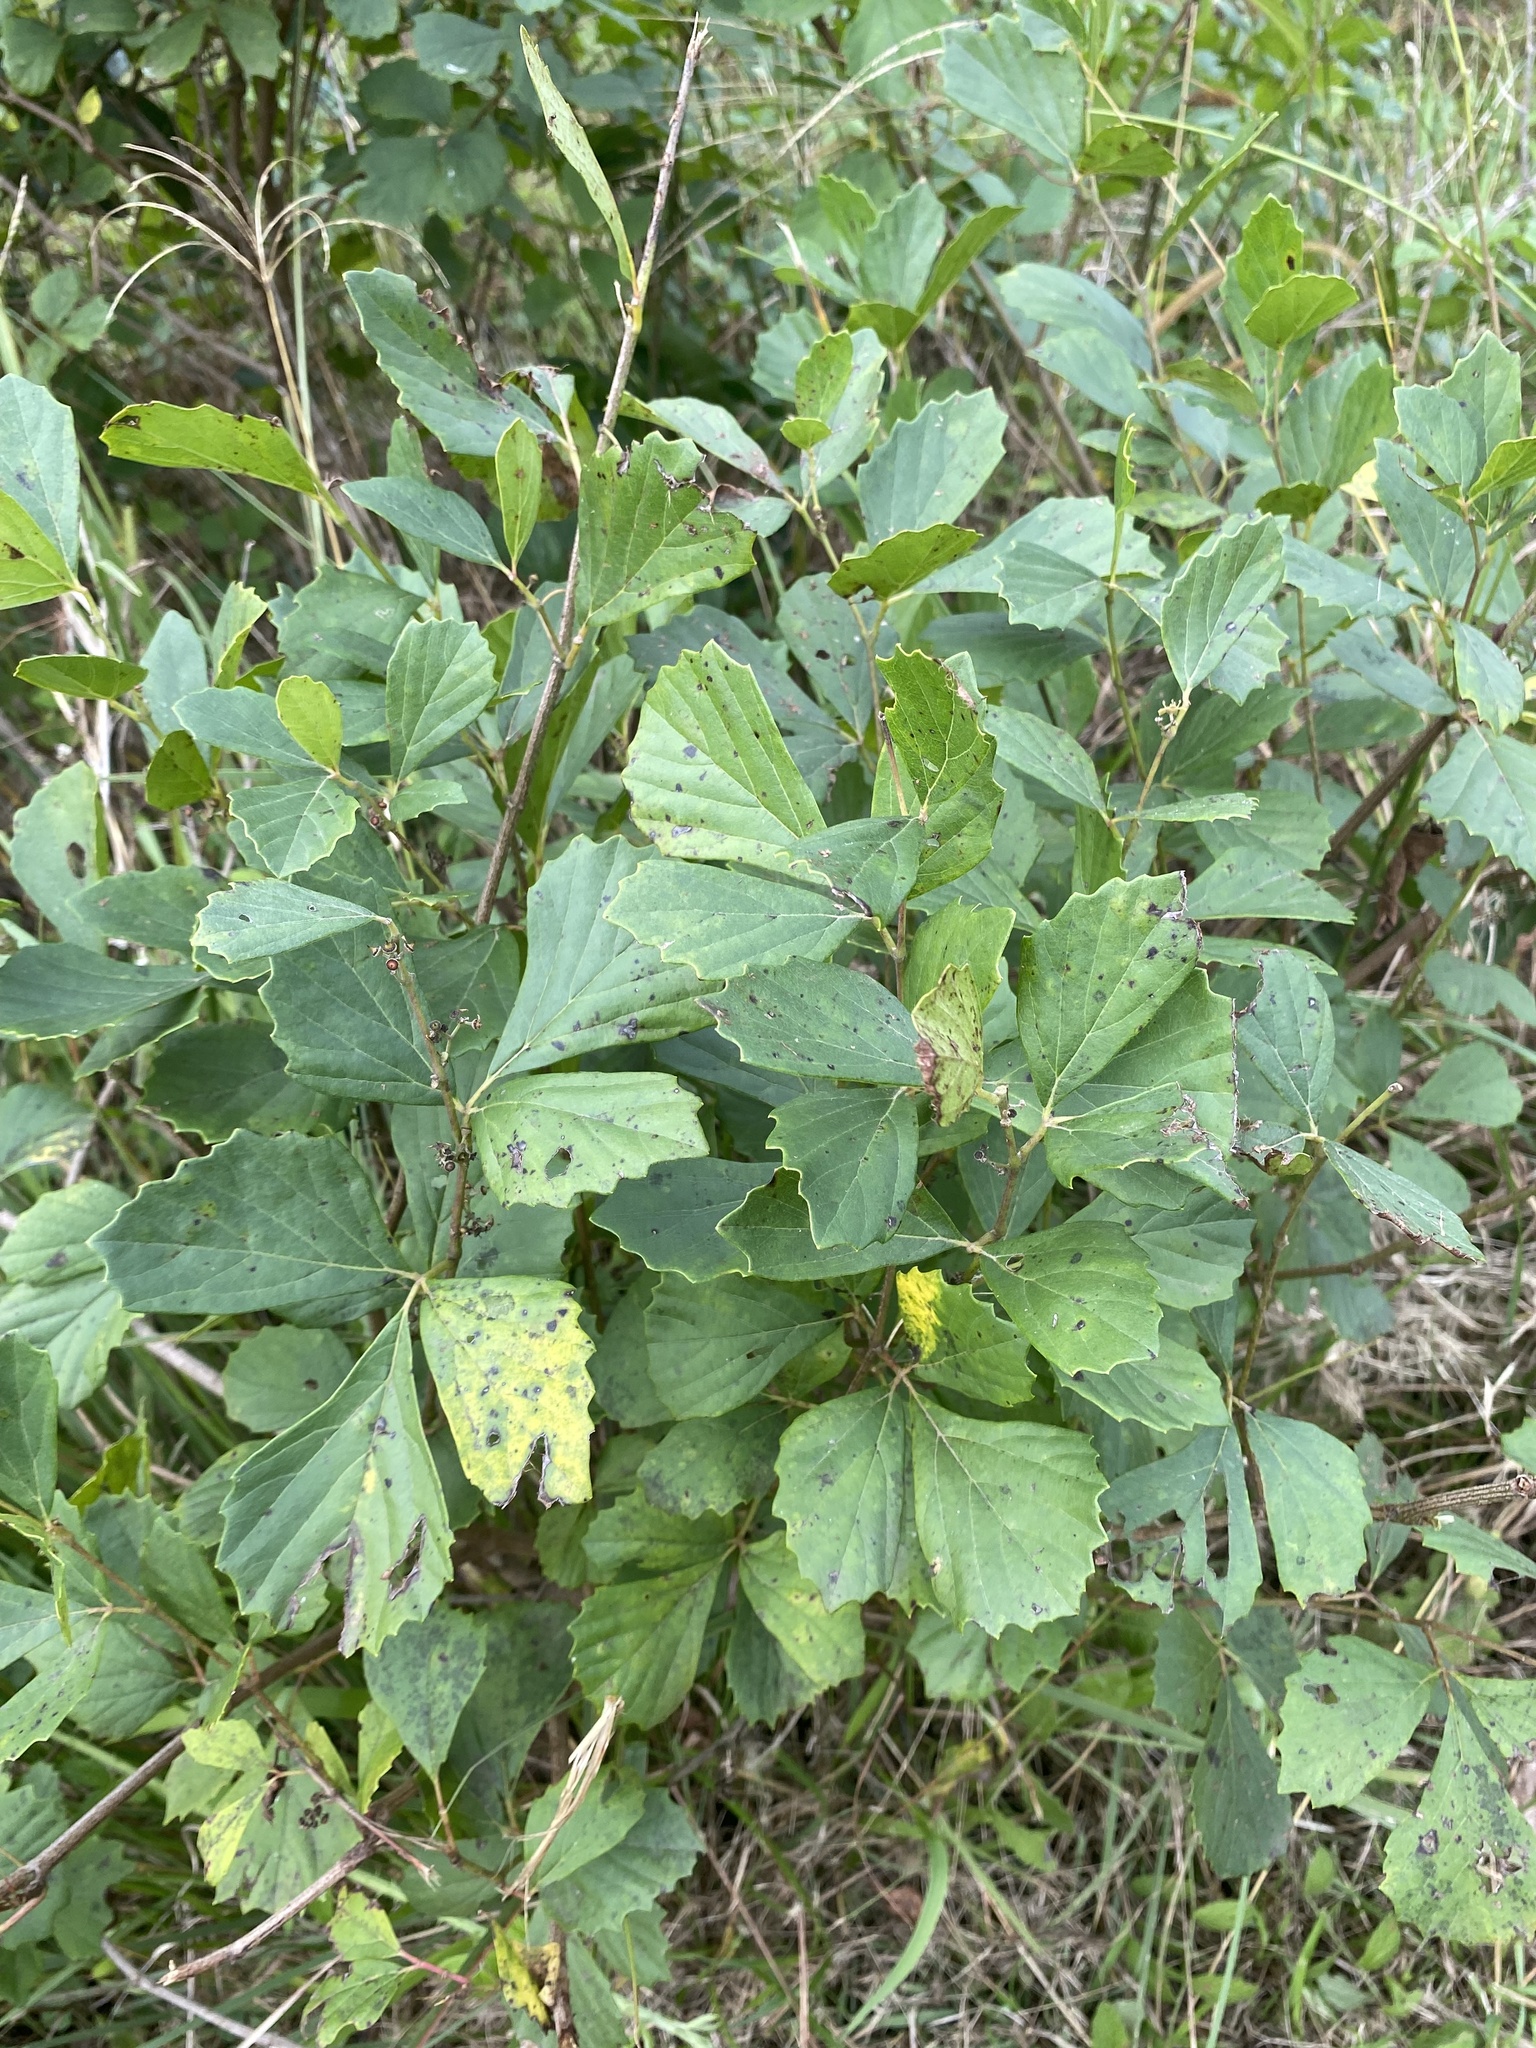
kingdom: Plantae
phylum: Tracheophyta
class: Magnoliopsida
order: Vitales
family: Vitaceae
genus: Rhoicissus
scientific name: Rhoicissus tridentata
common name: Common forest grape
